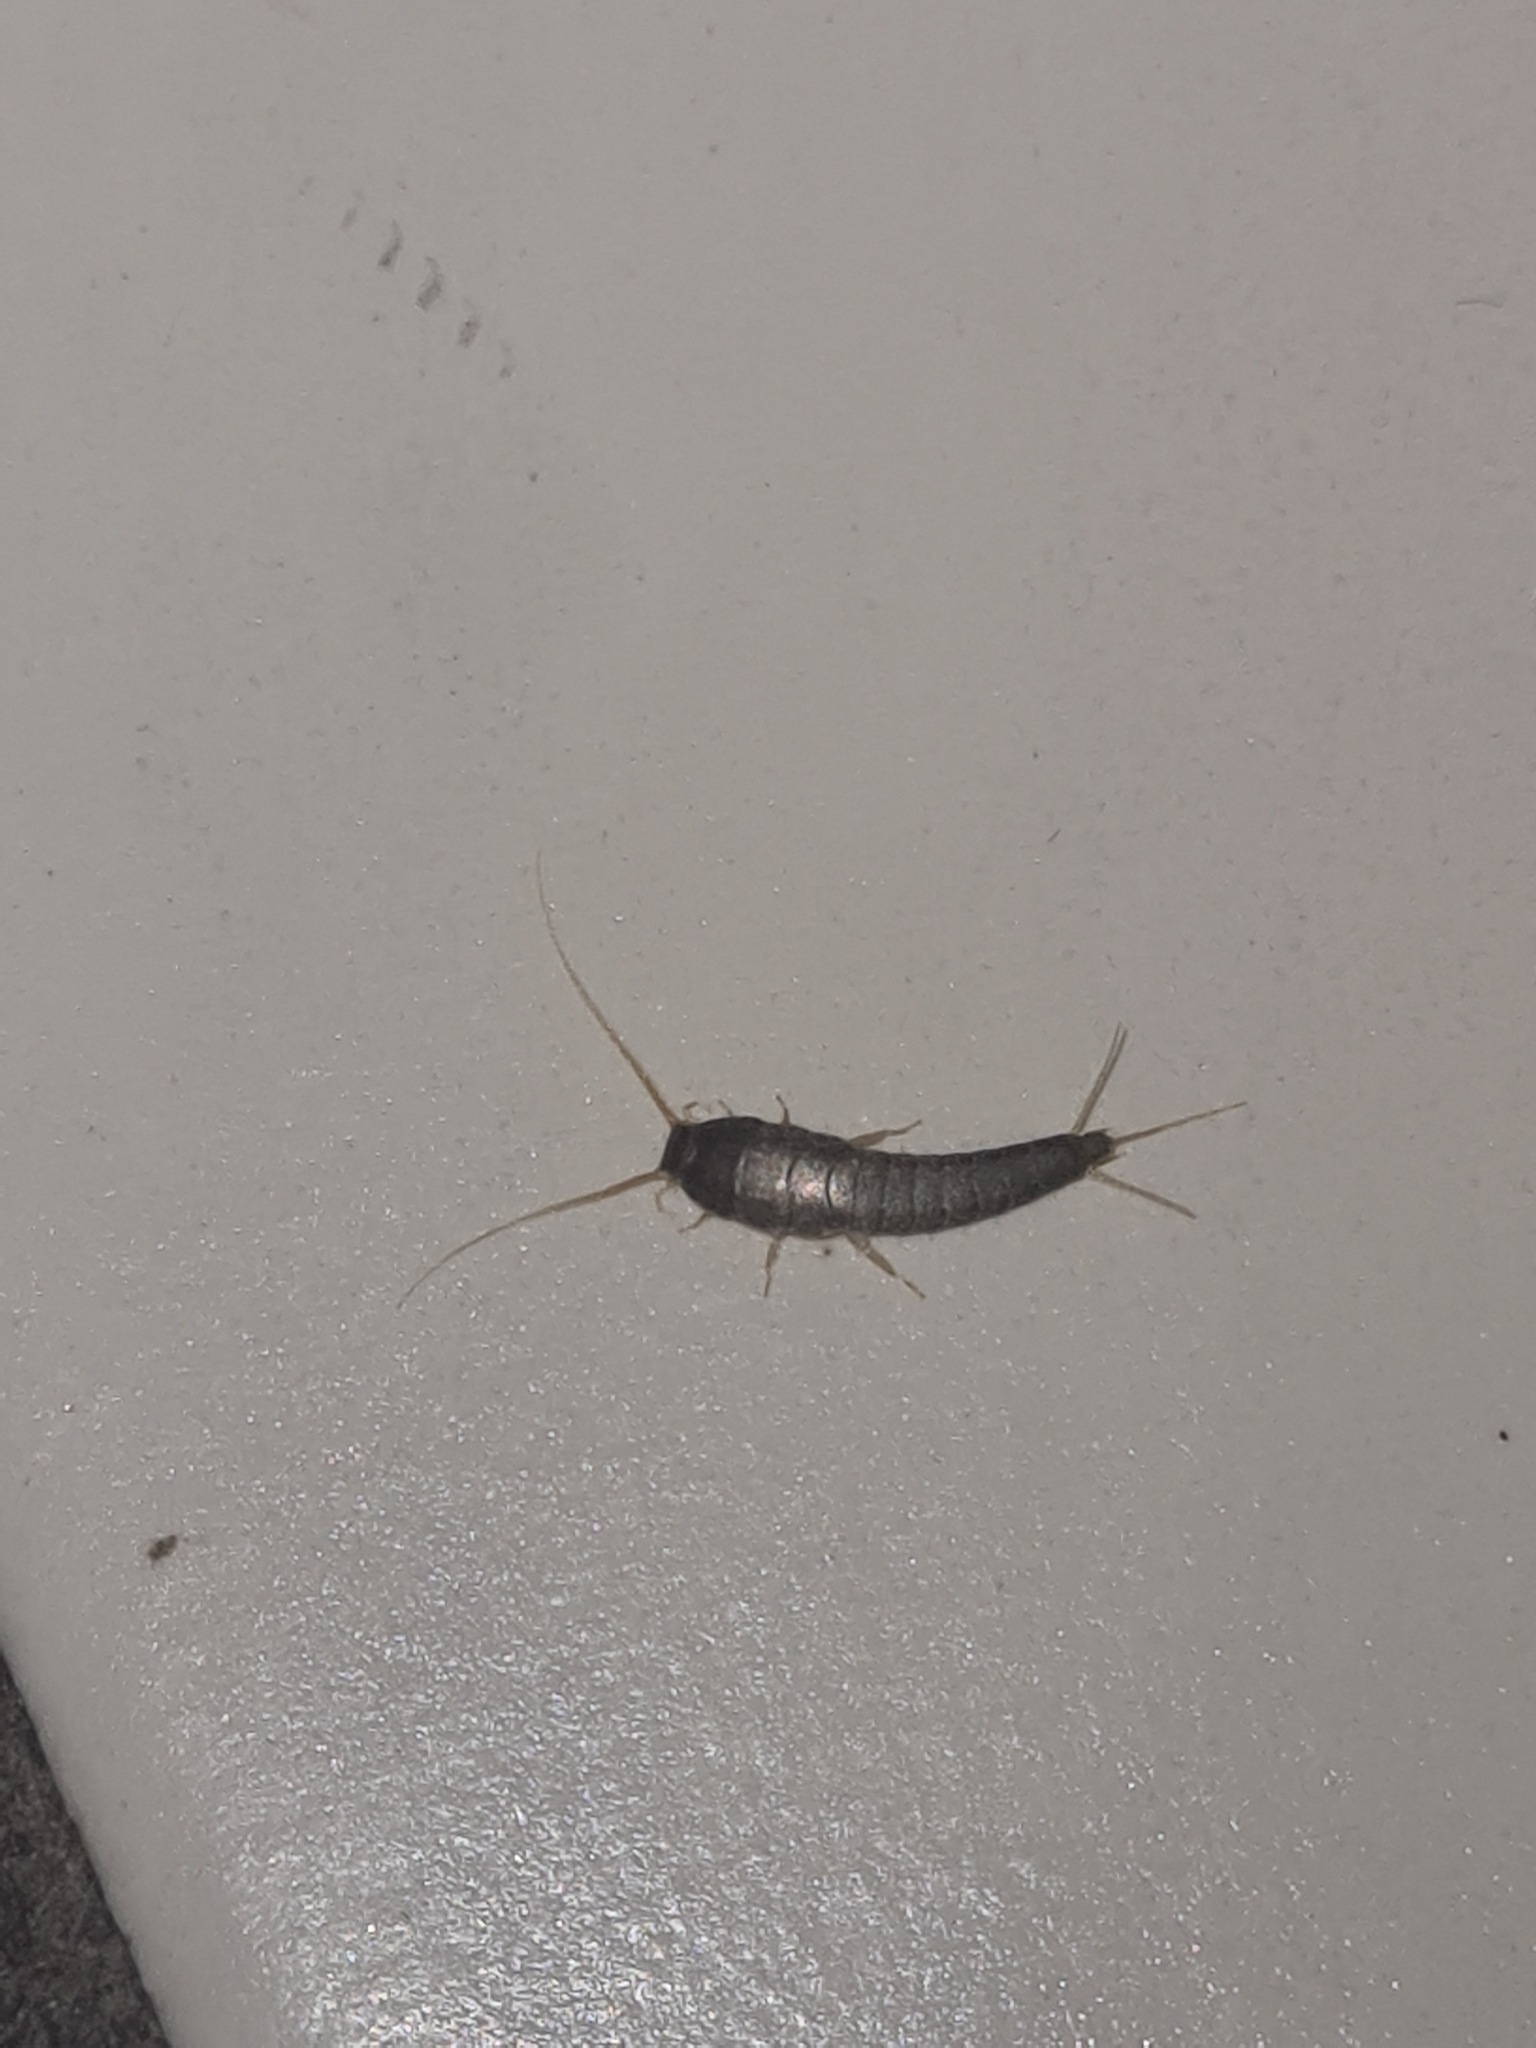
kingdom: Animalia
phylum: Arthropoda
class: Insecta
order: Zygentoma
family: Lepismatidae
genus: Lepisma
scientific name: Lepisma saccharinum
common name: Silverfish
